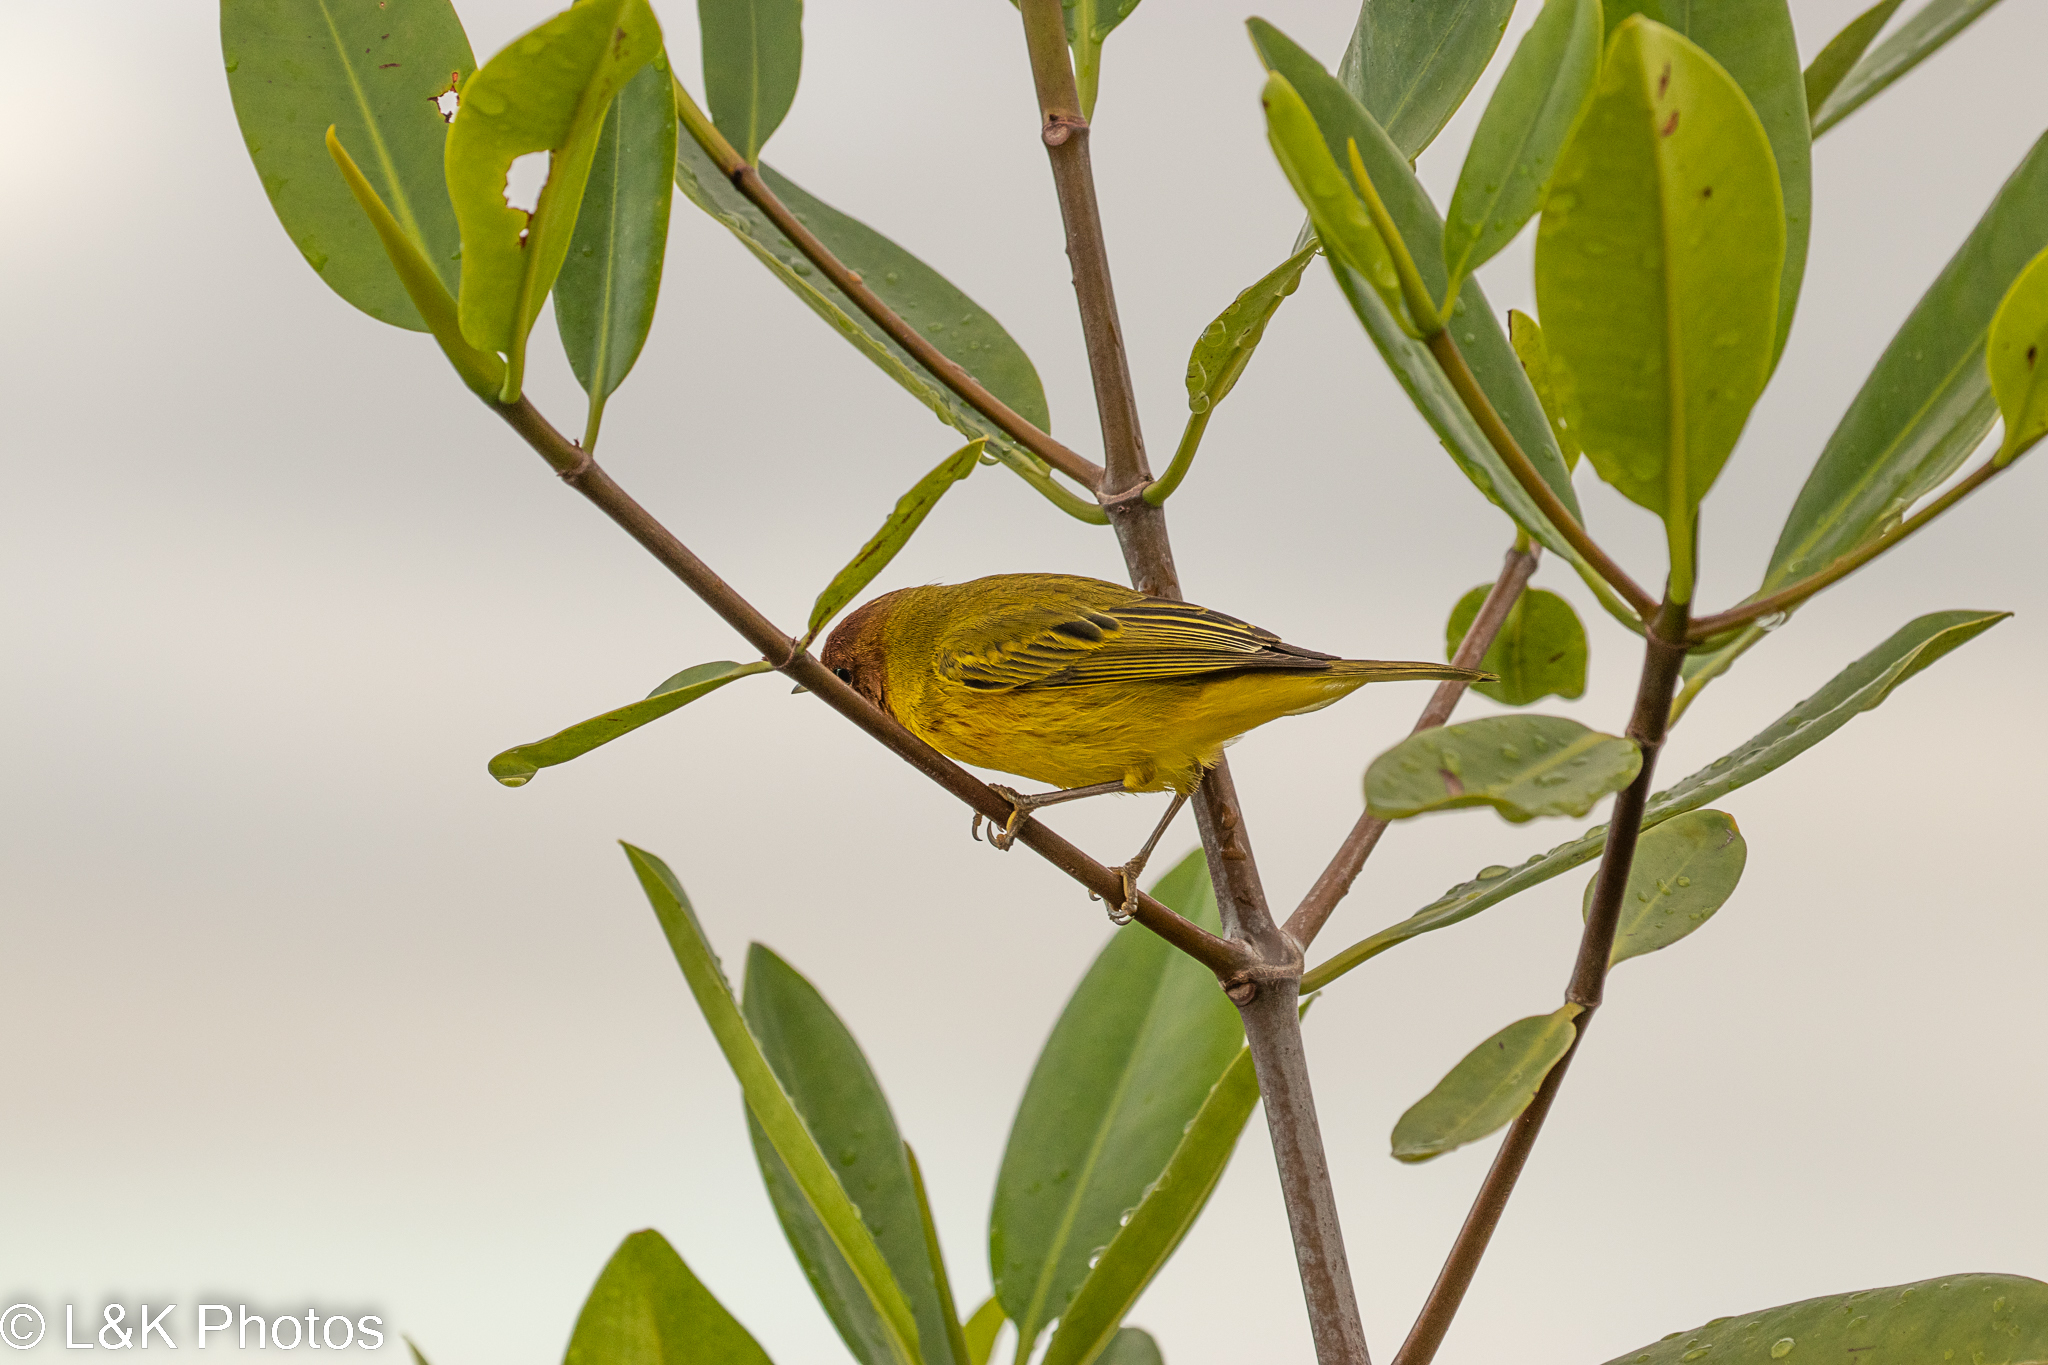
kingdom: Animalia
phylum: Chordata
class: Aves
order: Passeriformes
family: Parulidae
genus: Setophaga
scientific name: Setophaga petechia
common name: Yellow warbler
